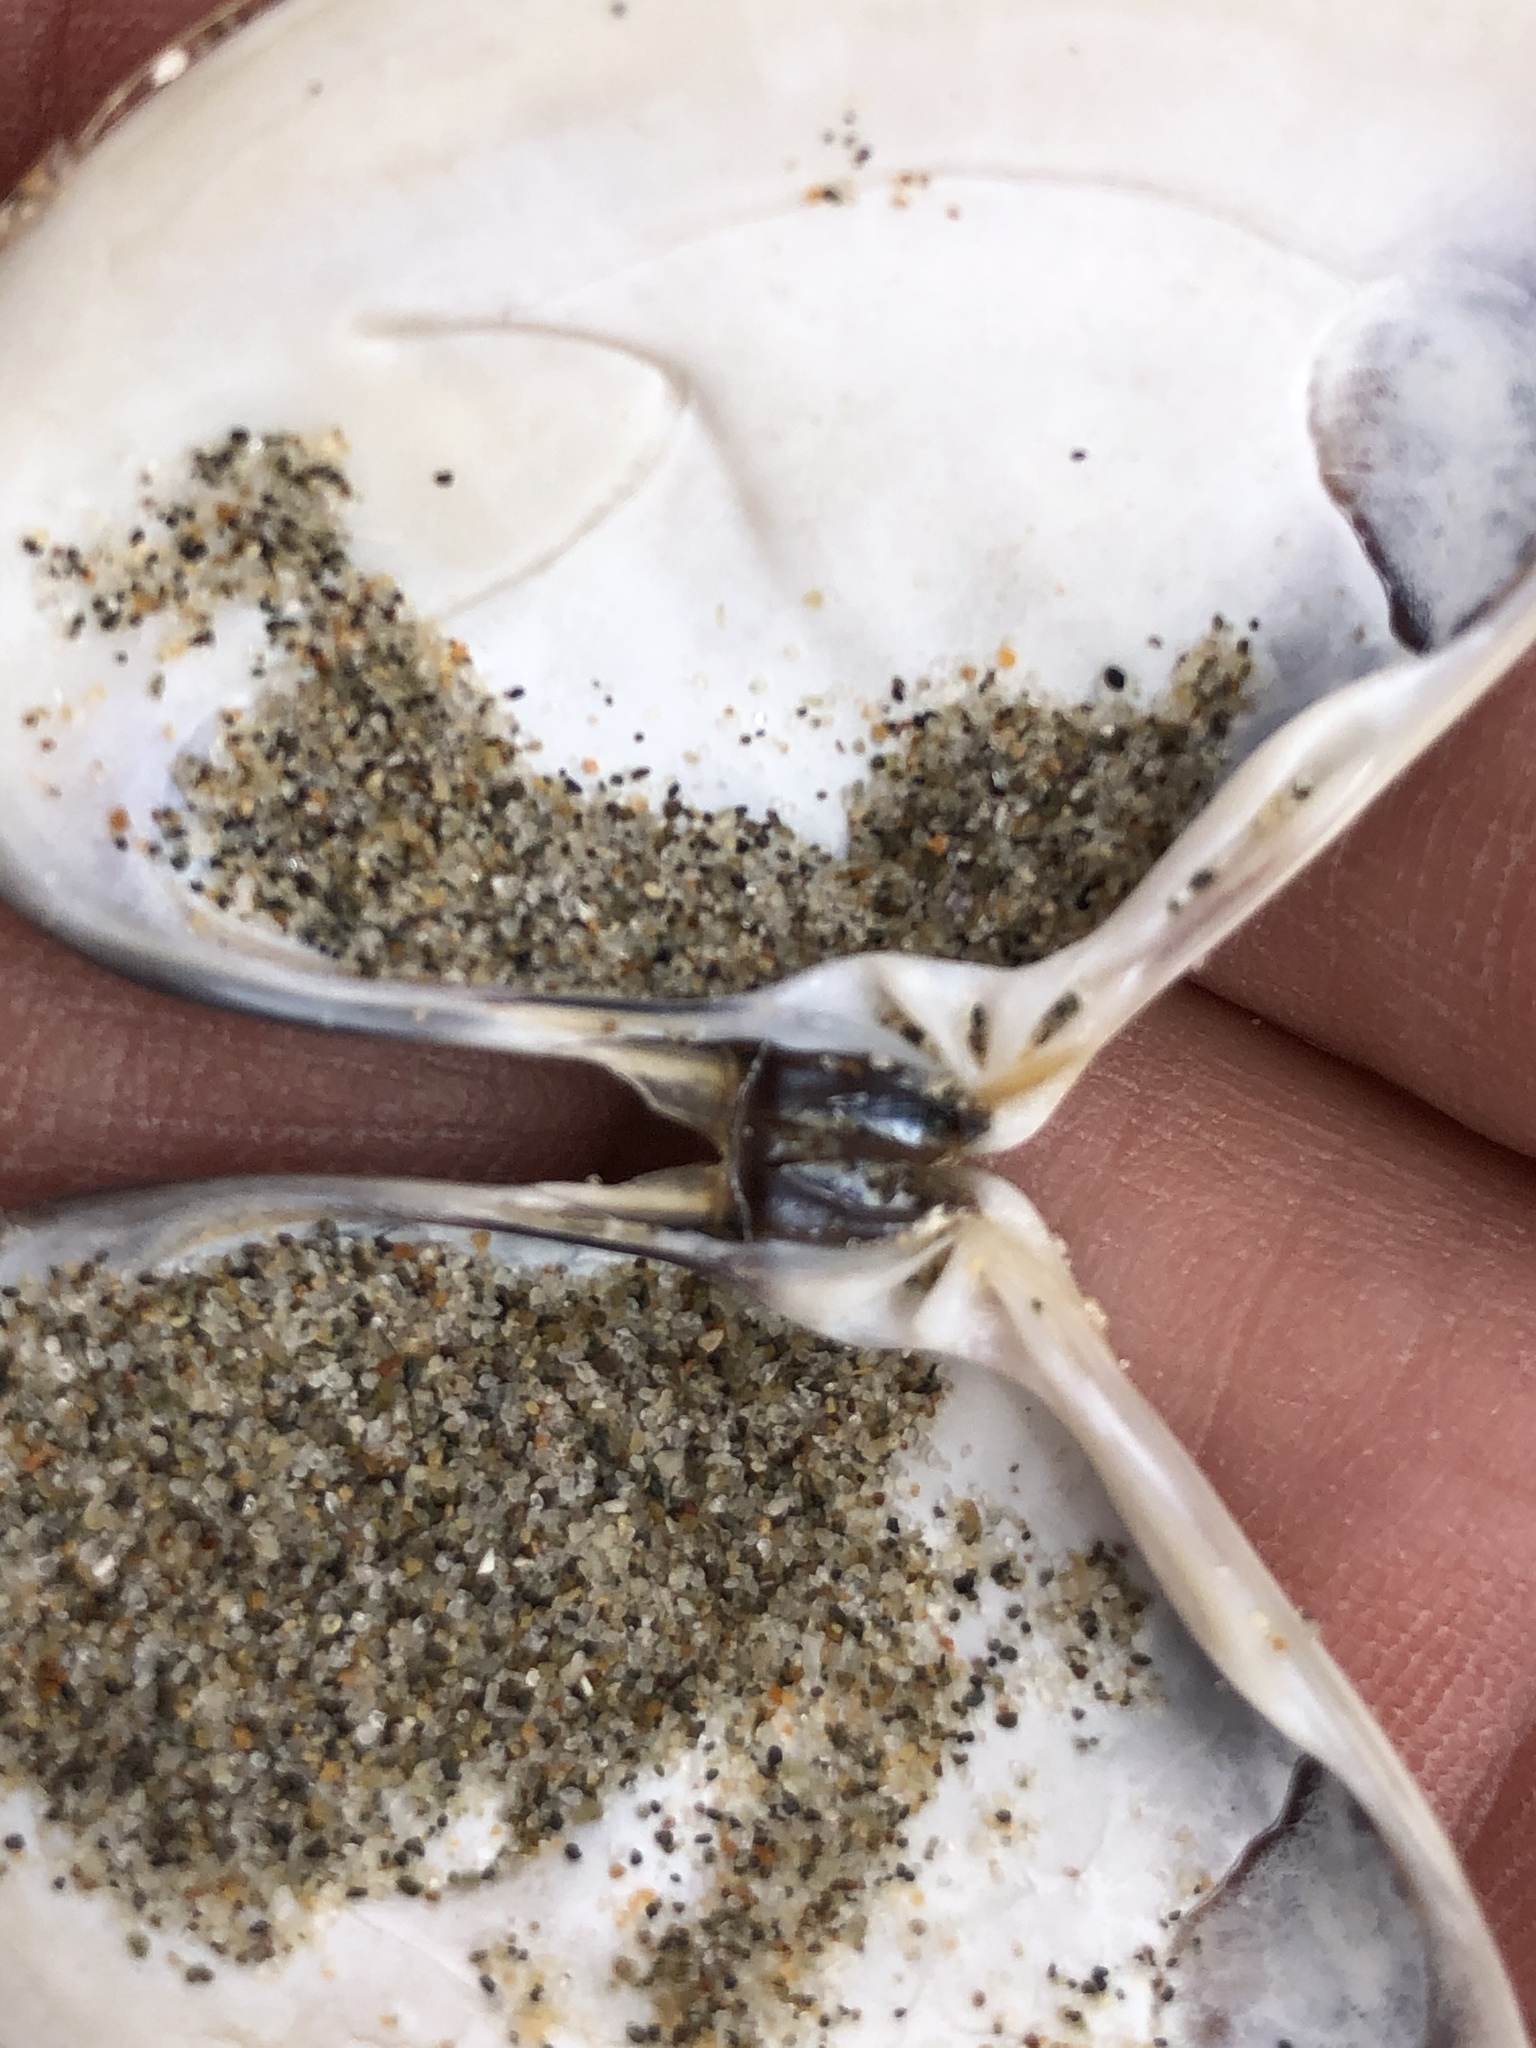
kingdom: Animalia
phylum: Mollusca
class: Bivalvia
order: Venerida
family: Veneridae
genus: Tivela
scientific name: Tivela stultorum
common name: Pismo clam
